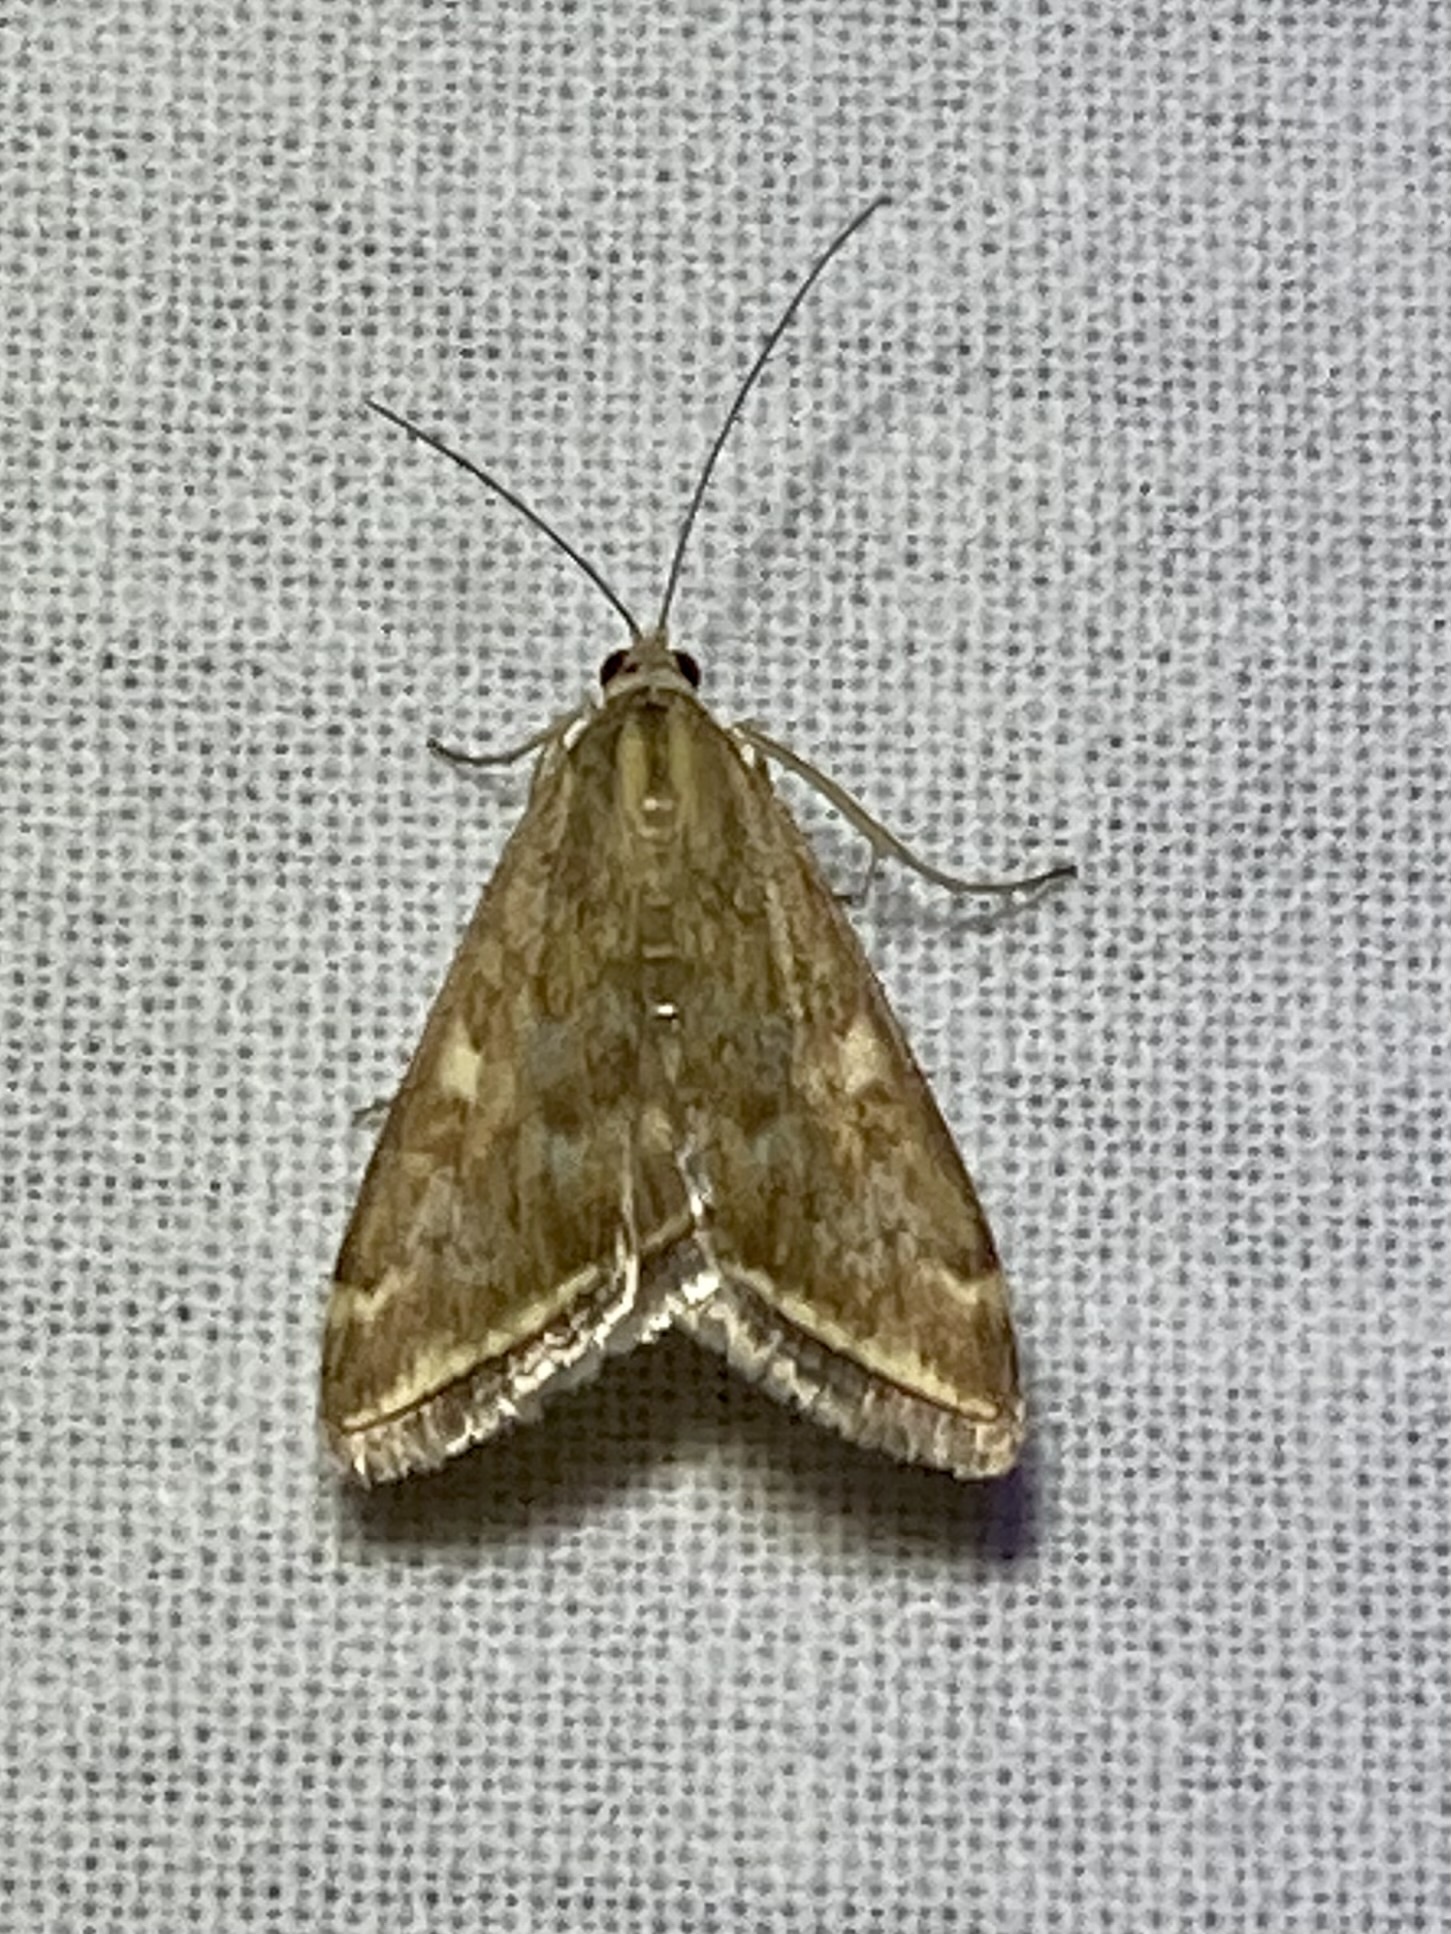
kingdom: Animalia
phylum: Arthropoda
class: Insecta
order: Lepidoptera
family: Crambidae
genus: Loxostege
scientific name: Loxostege sticticalis
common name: Crambid moth
